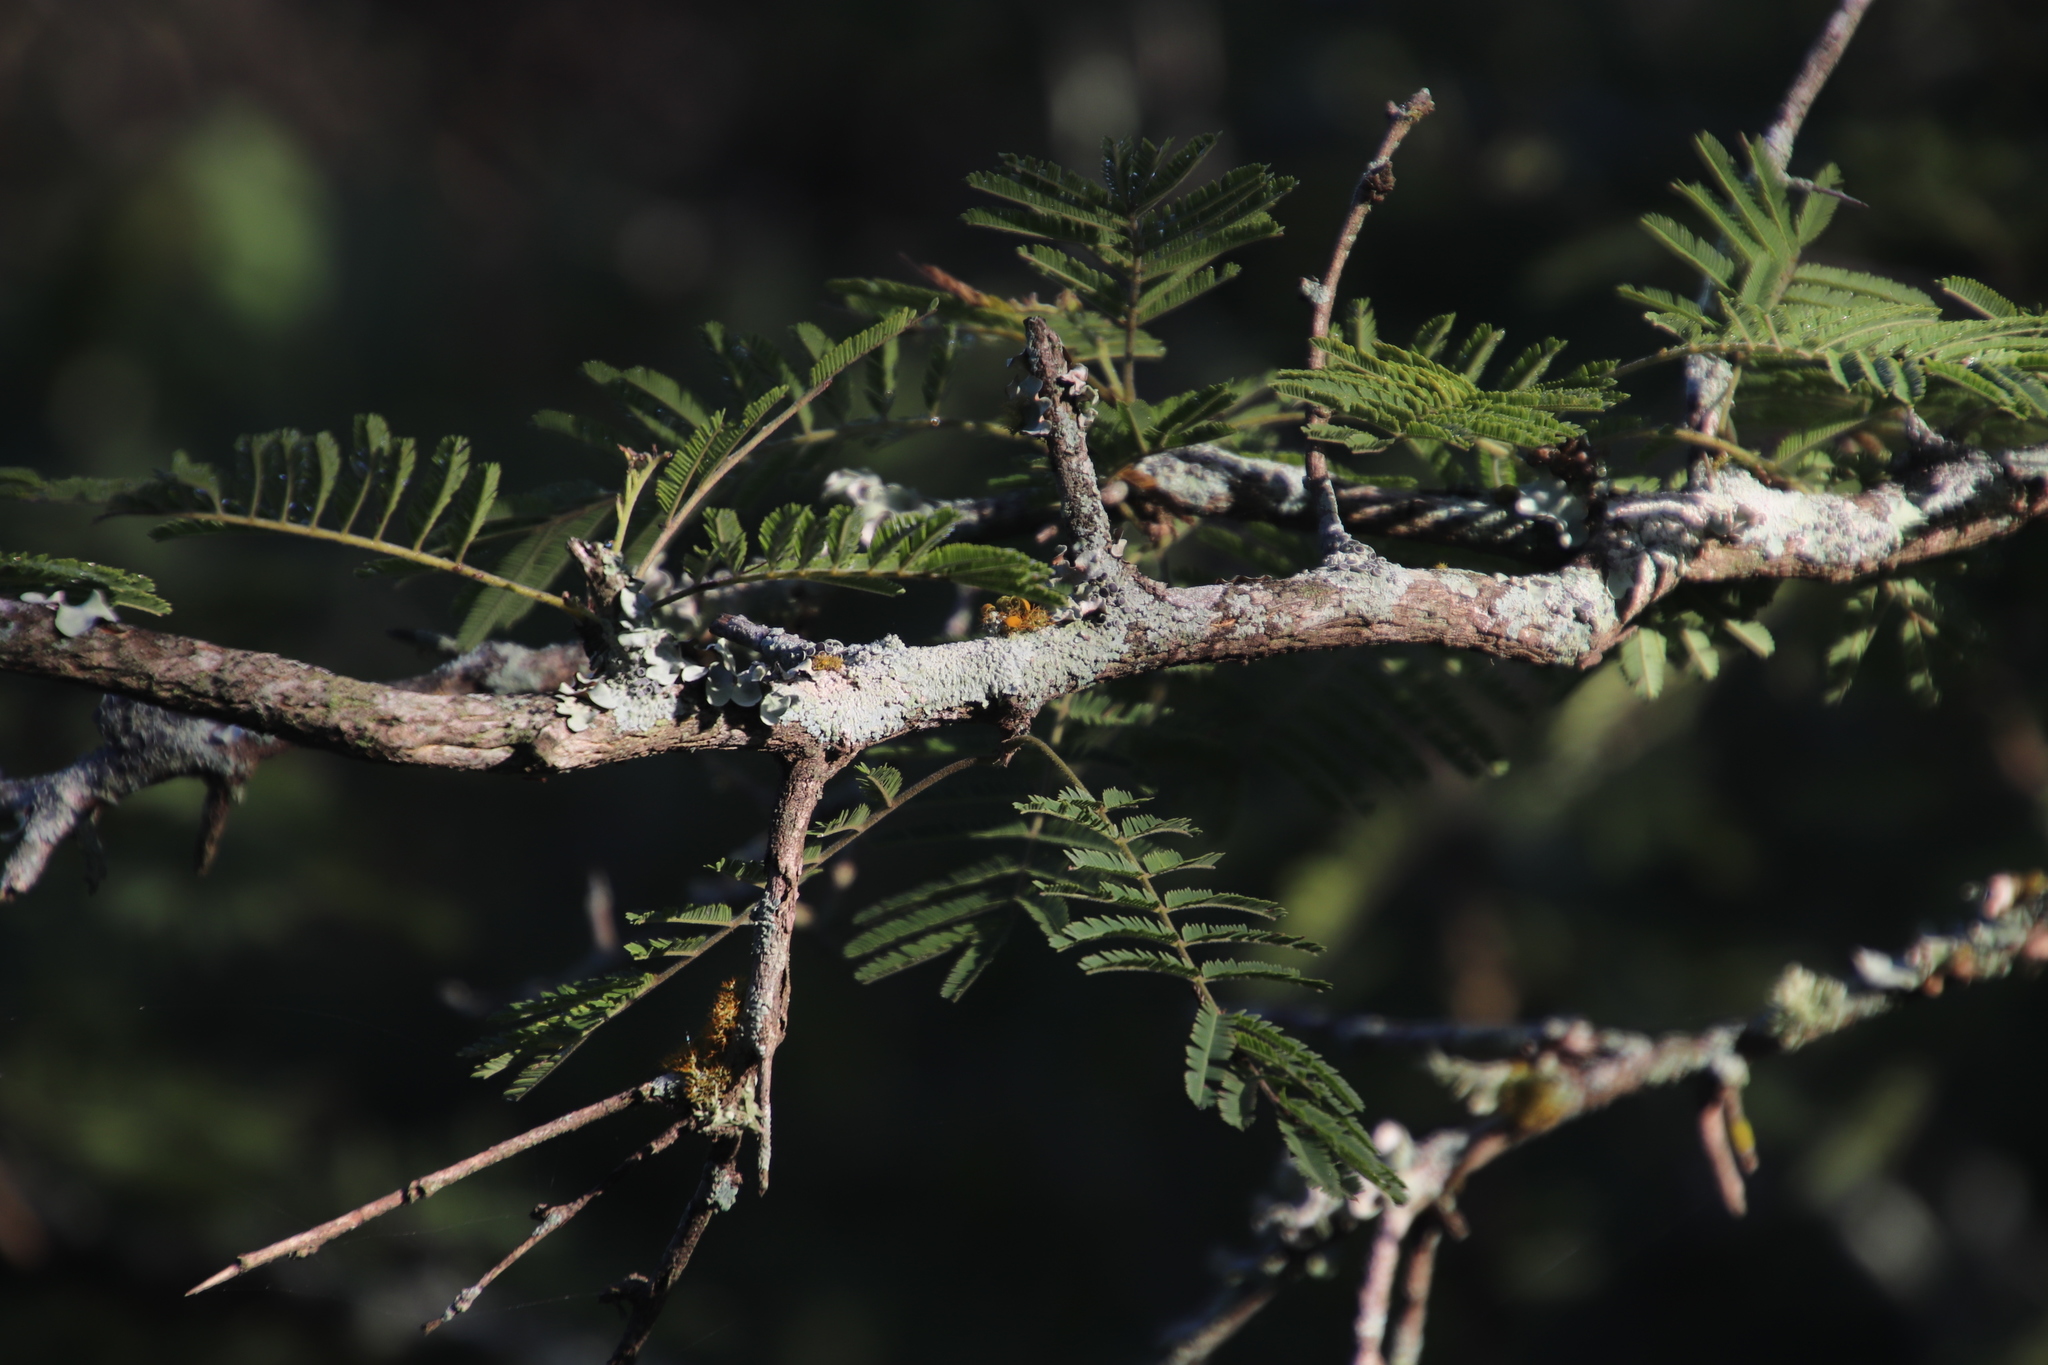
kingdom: Plantae
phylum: Tracheophyta
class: Magnoliopsida
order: Fabales
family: Fabaceae
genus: Dichrostachys
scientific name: Dichrostachys cinerea
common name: Sicklebush
